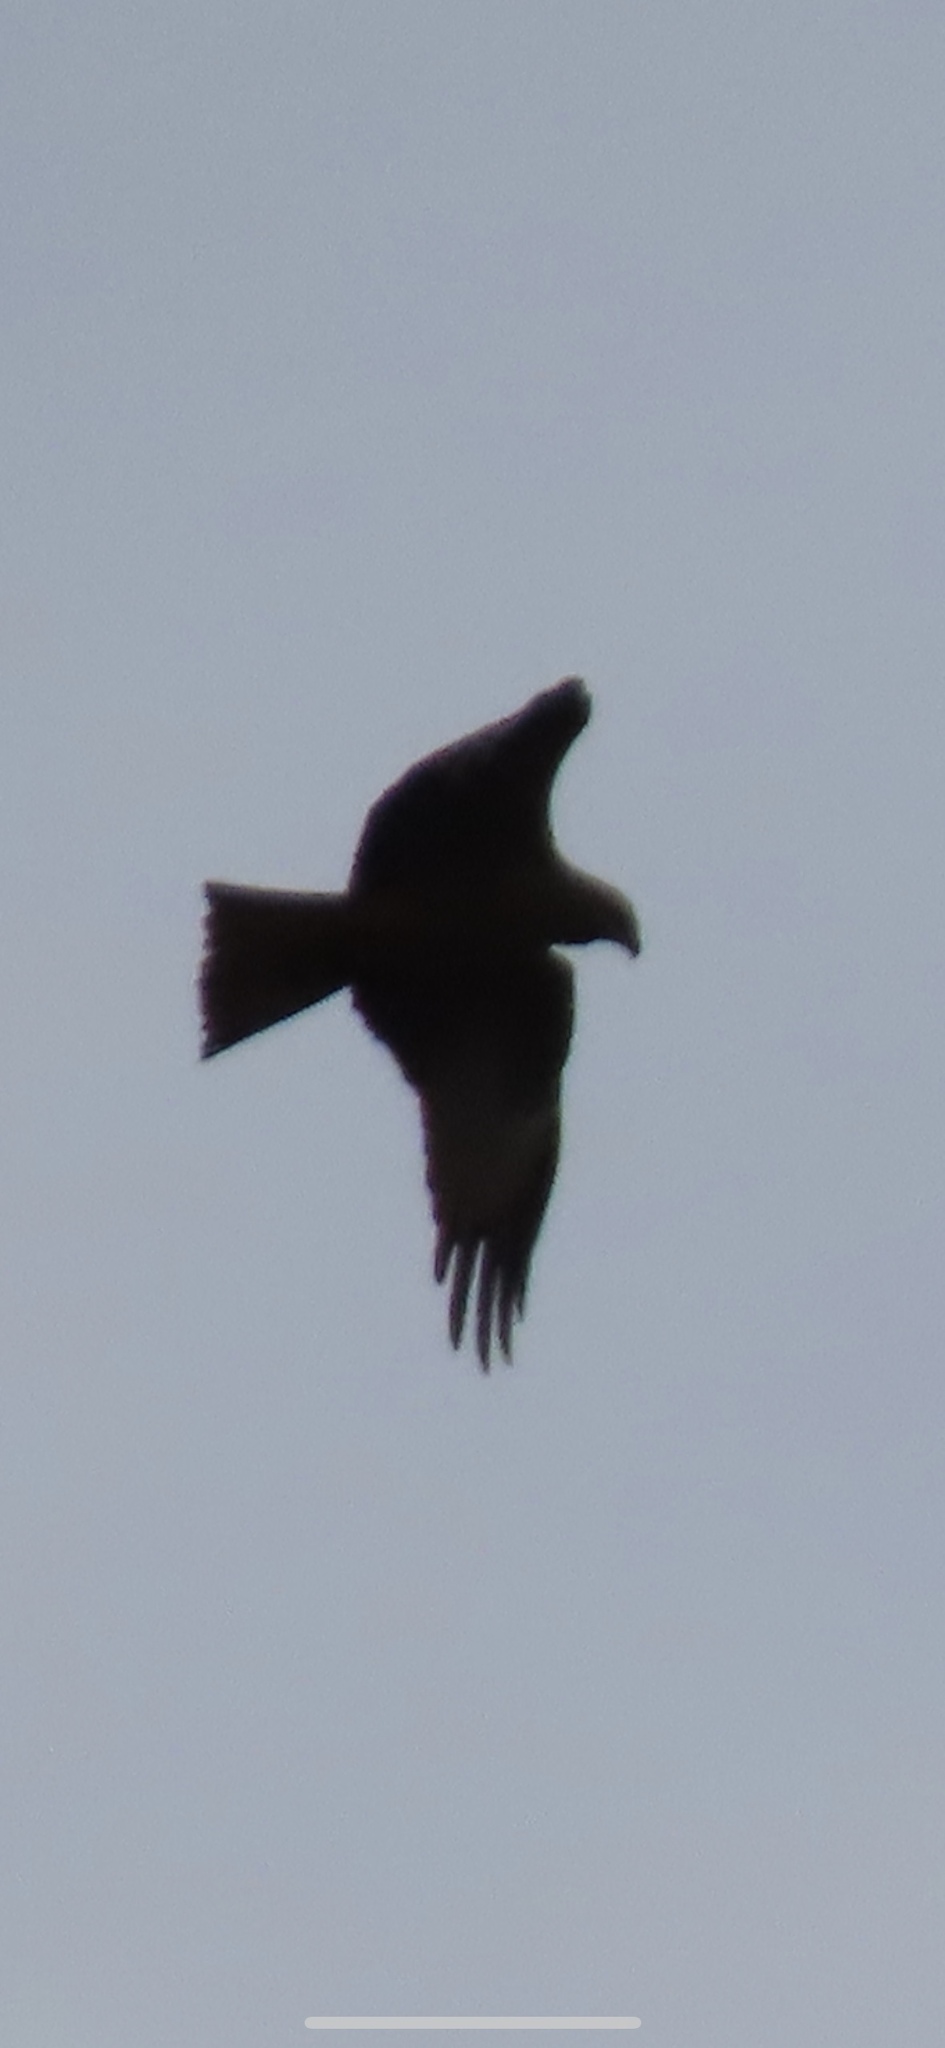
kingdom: Animalia
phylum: Chordata
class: Aves
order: Accipitriformes
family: Accipitridae
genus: Milvus
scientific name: Milvus migrans
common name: Black kite
